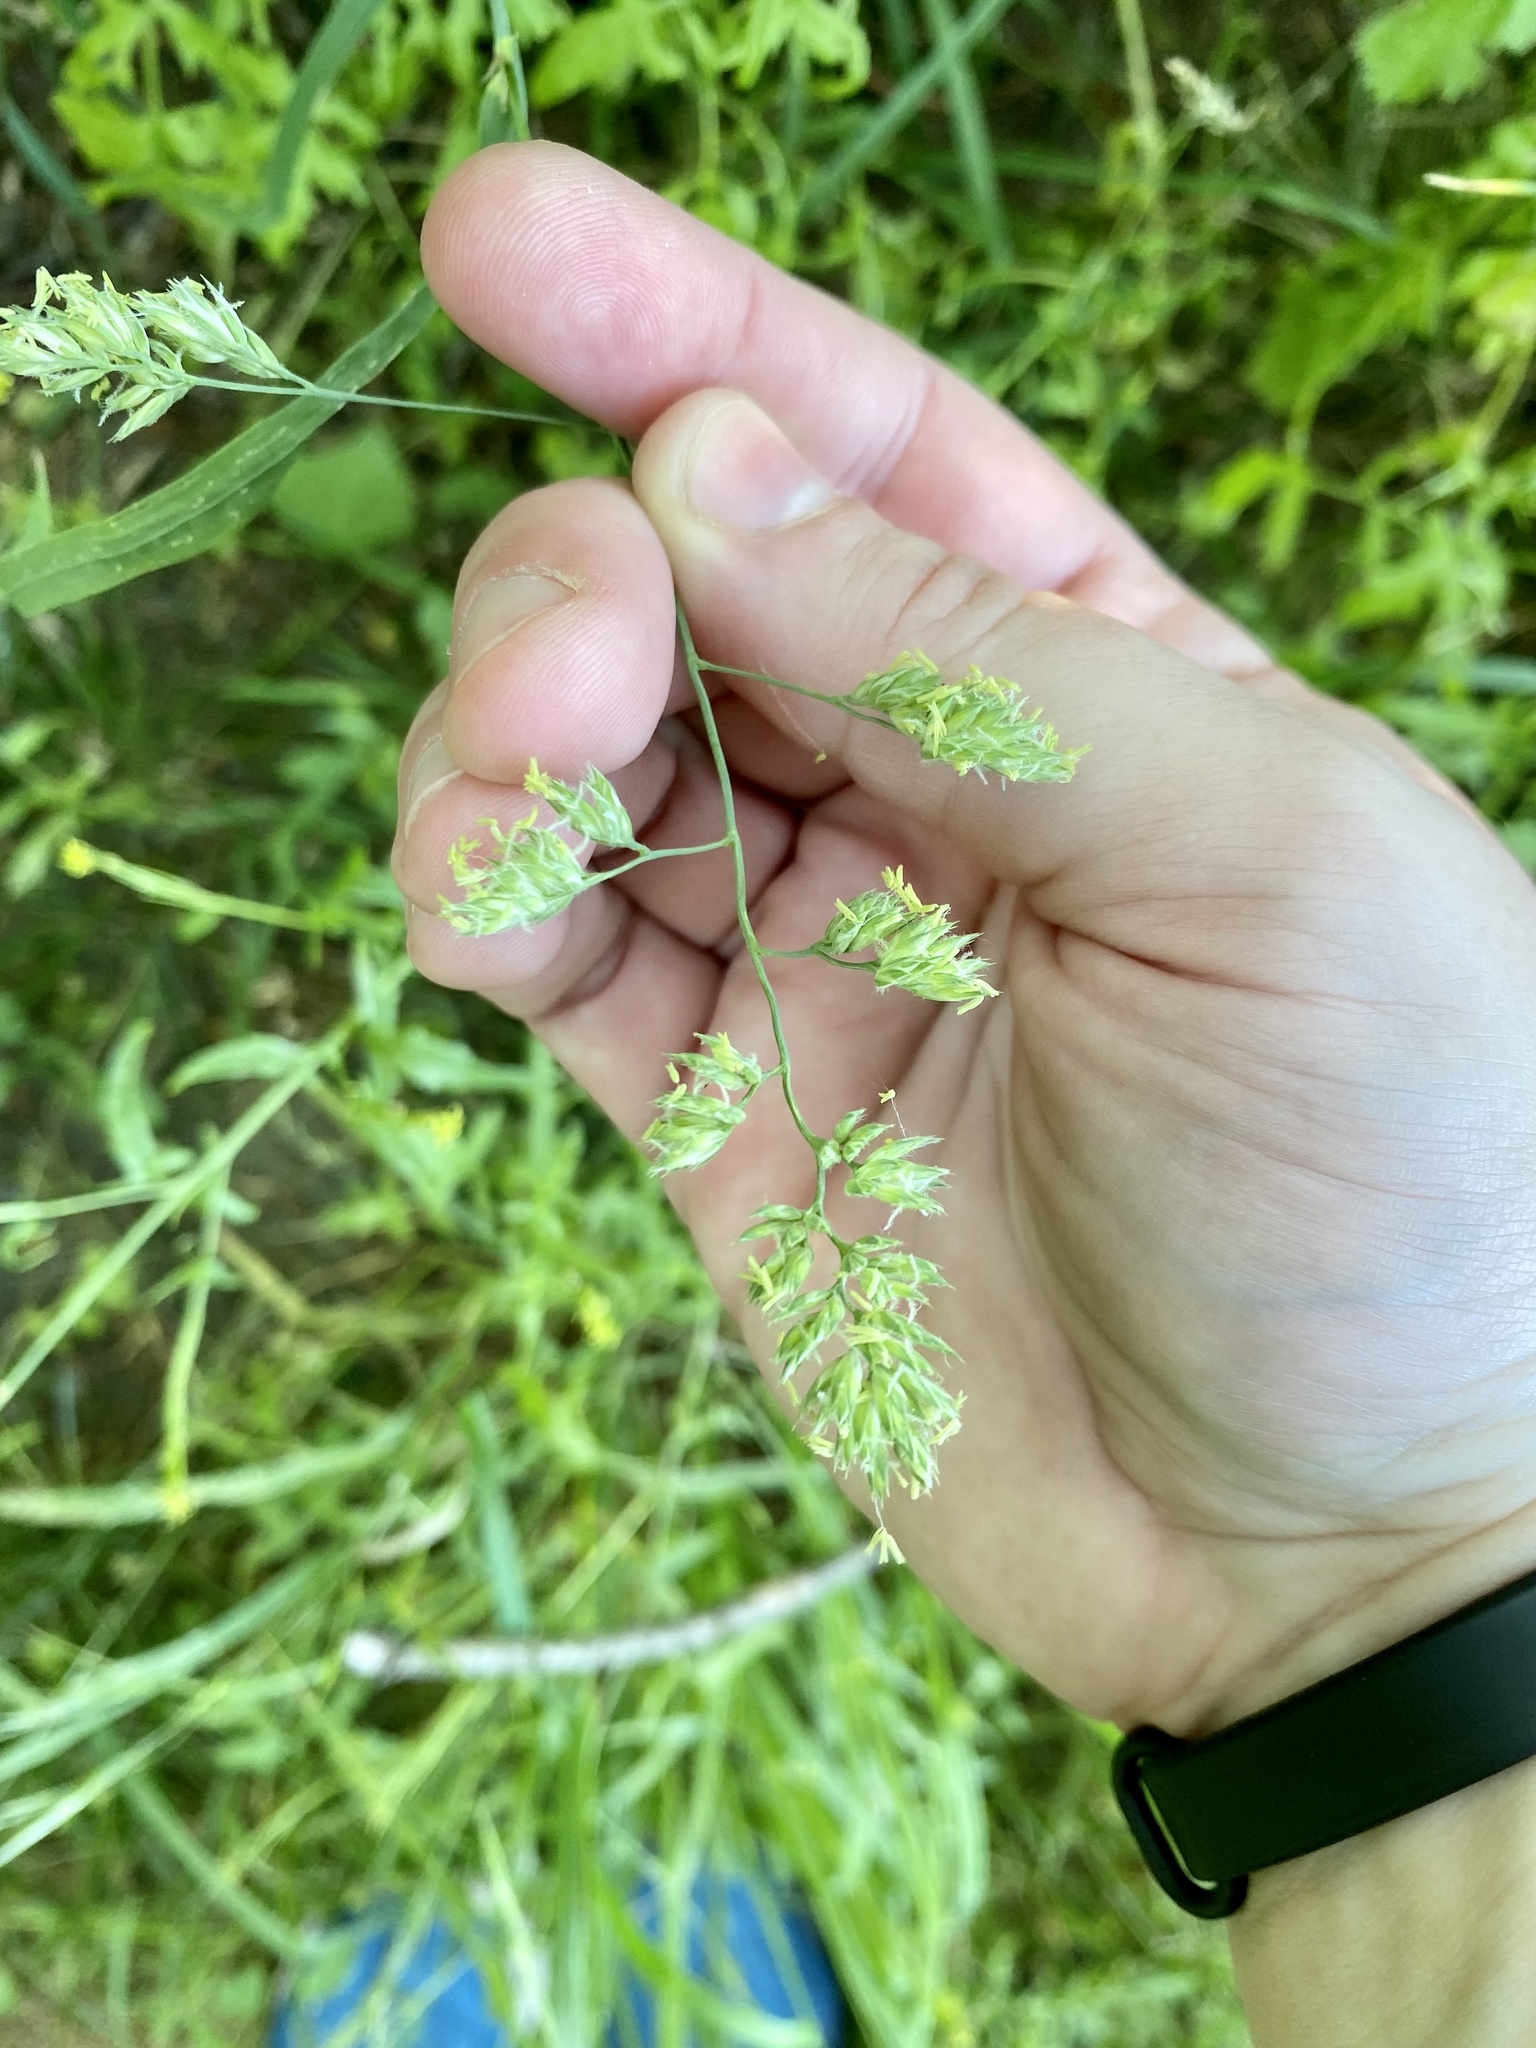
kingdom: Plantae
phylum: Tracheophyta
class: Liliopsida
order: Poales
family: Poaceae
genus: Dactylis
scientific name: Dactylis glomerata
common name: Orchardgrass
